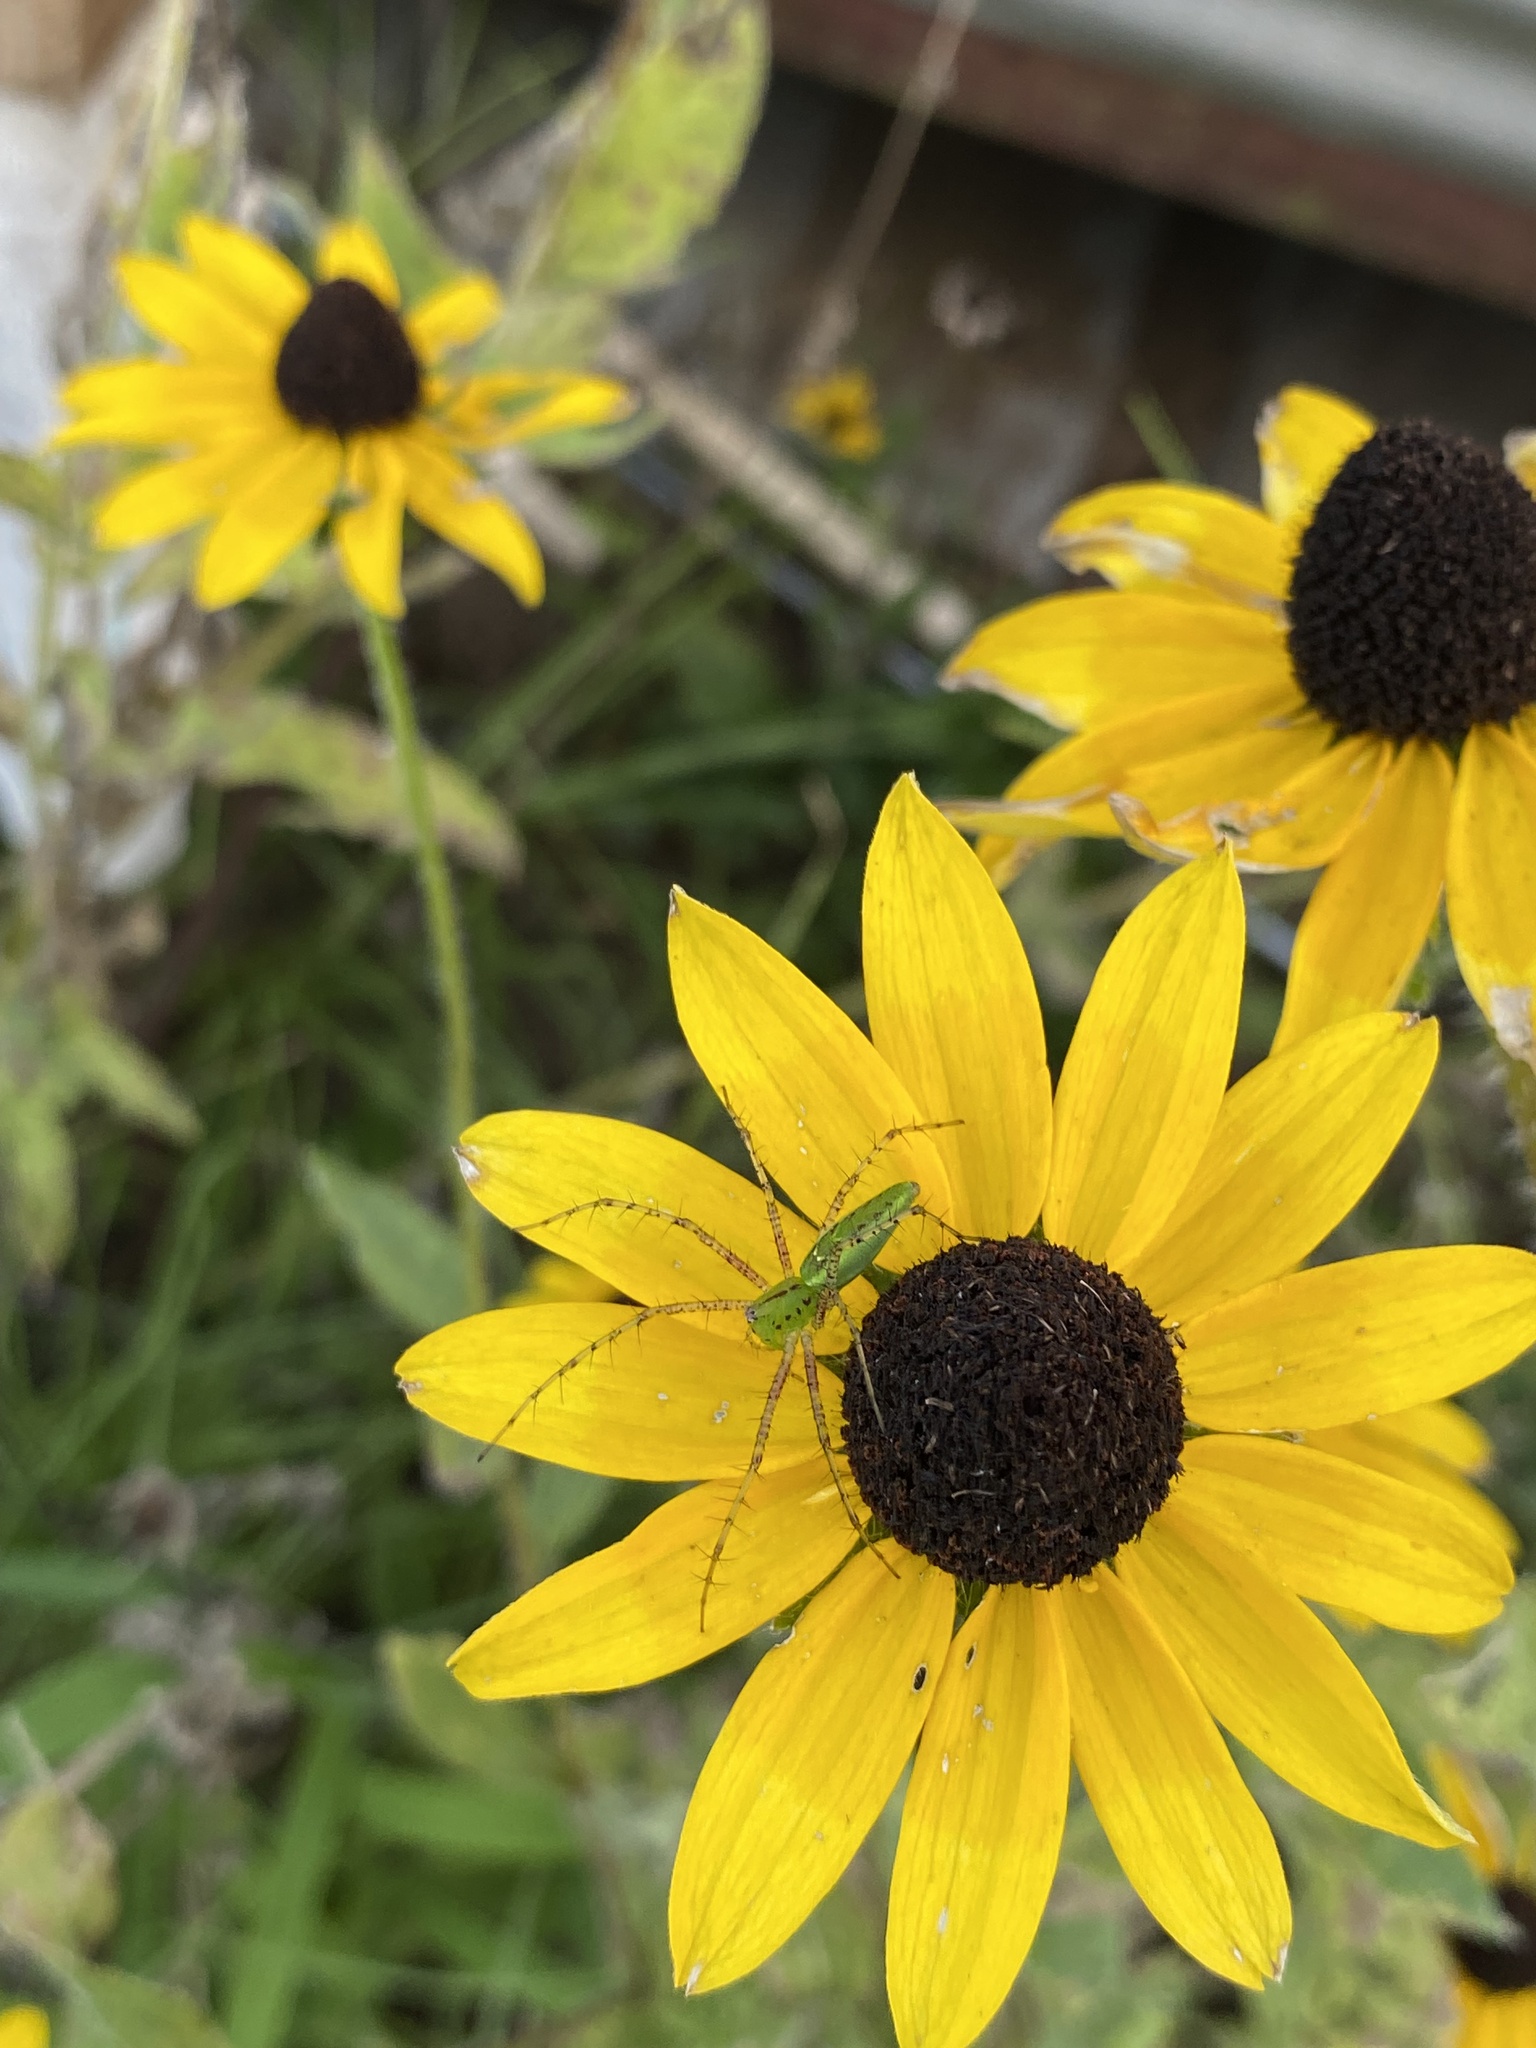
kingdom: Animalia
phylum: Arthropoda
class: Arachnida
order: Araneae
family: Oxyopidae
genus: Peucetia
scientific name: Peucetia viridans
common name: Lynx spiders
